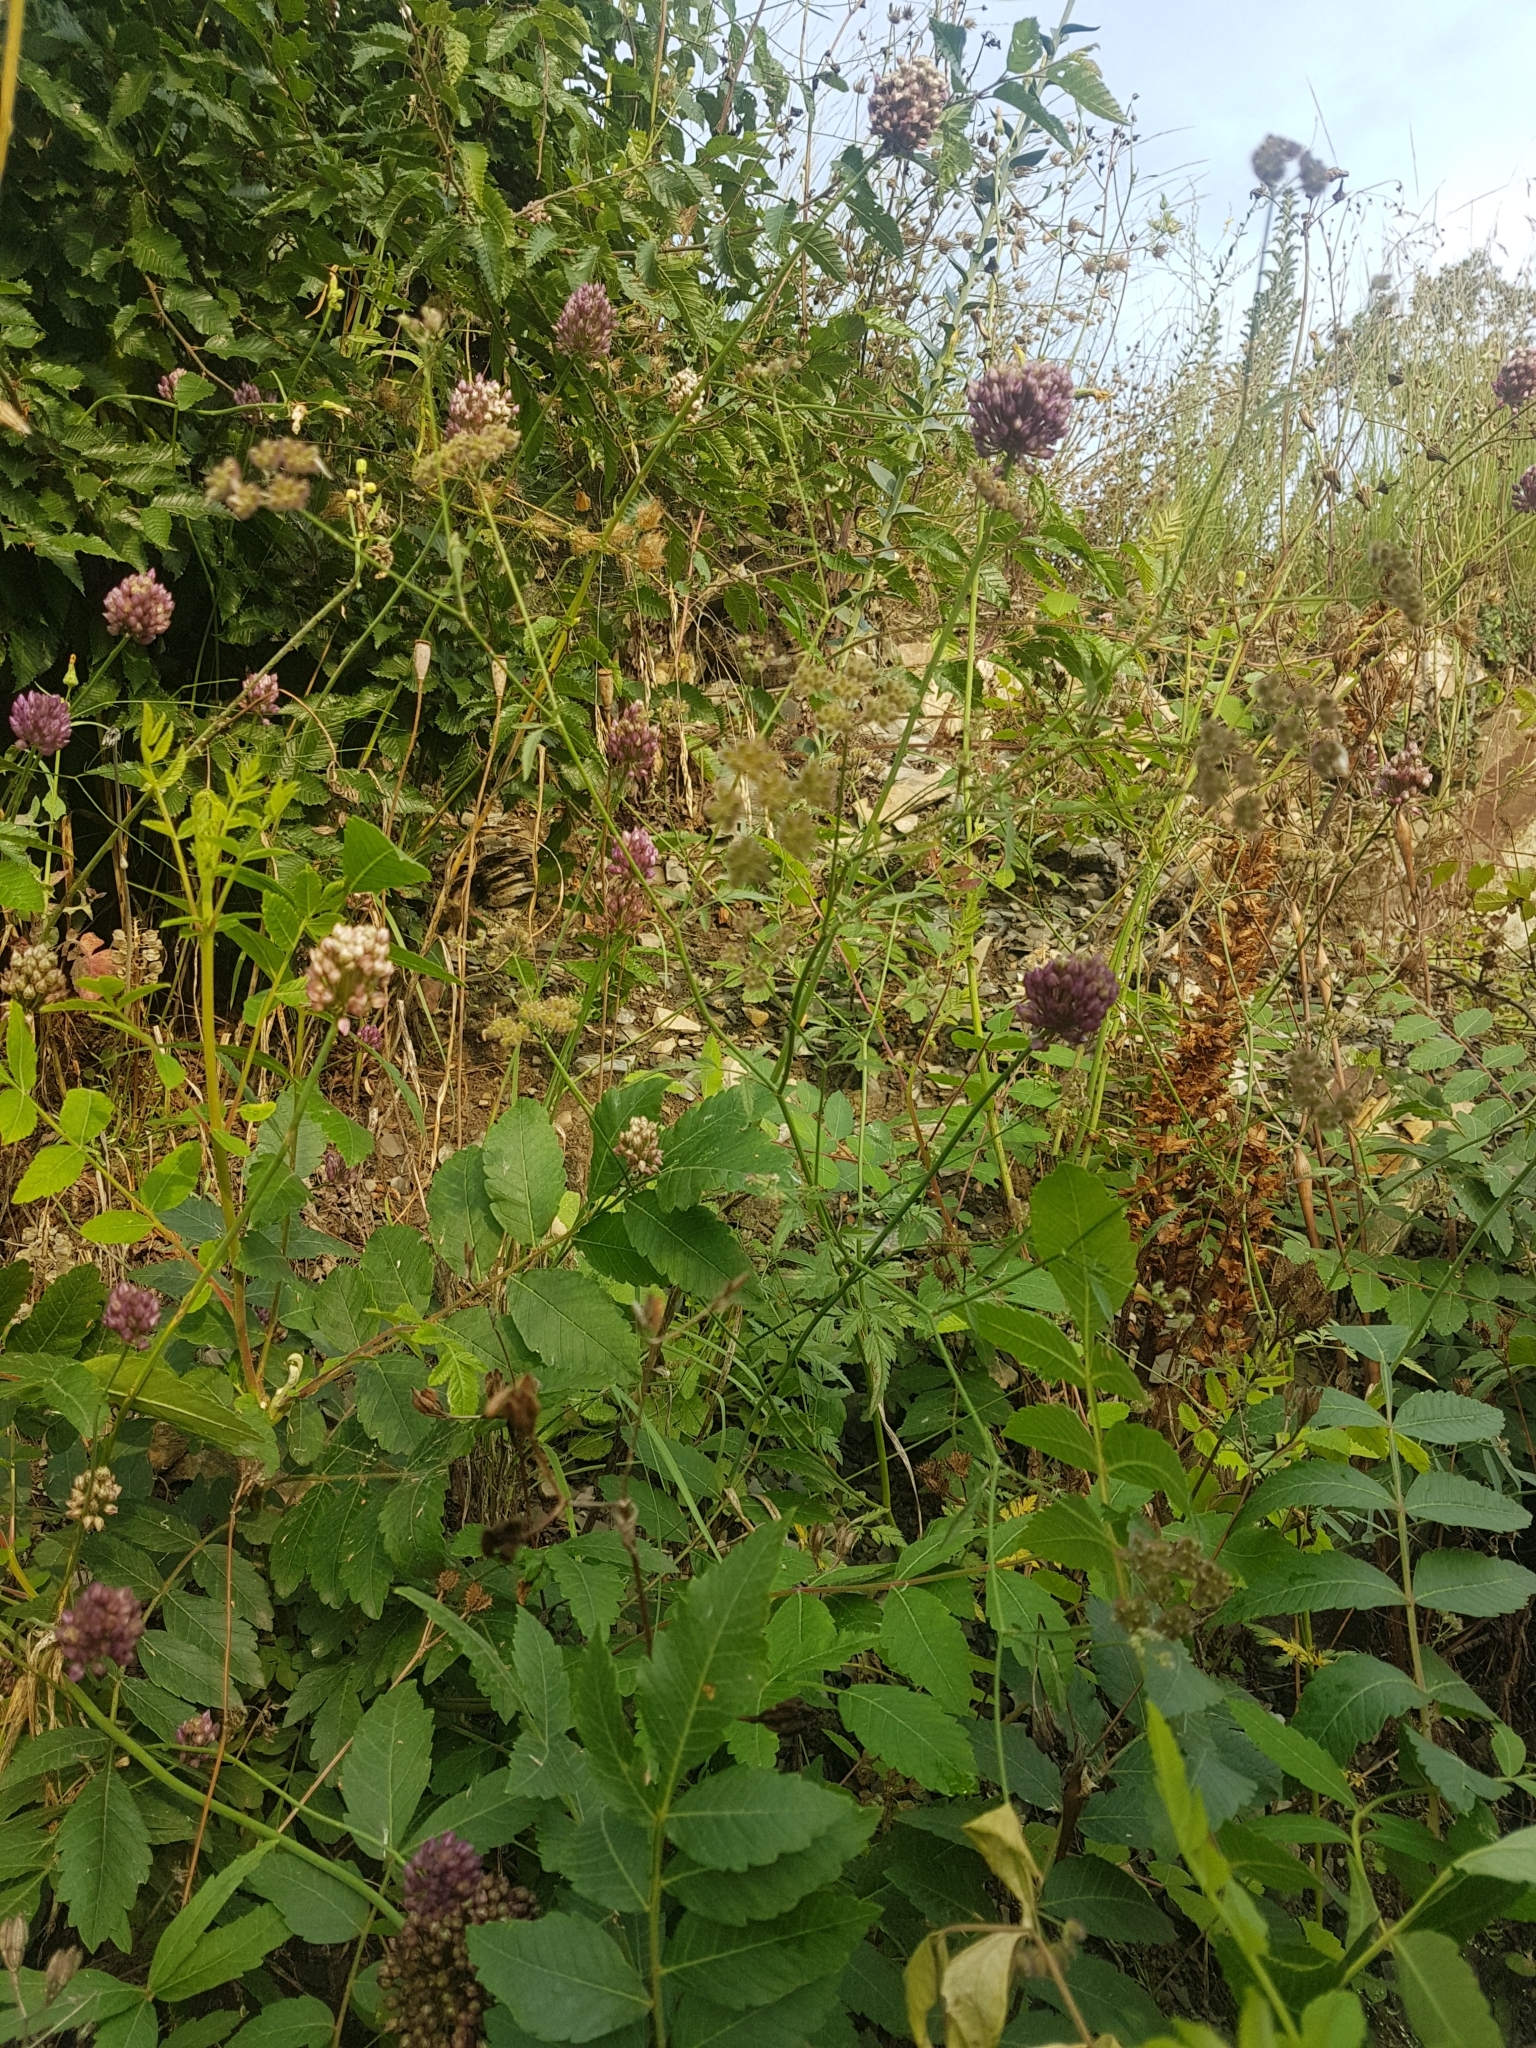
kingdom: Plantae
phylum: Tracheophyta
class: Liliopsida
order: Asparagales
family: Amaryllidaceae
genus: Allium
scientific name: Allium rotundum
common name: Sand leek
